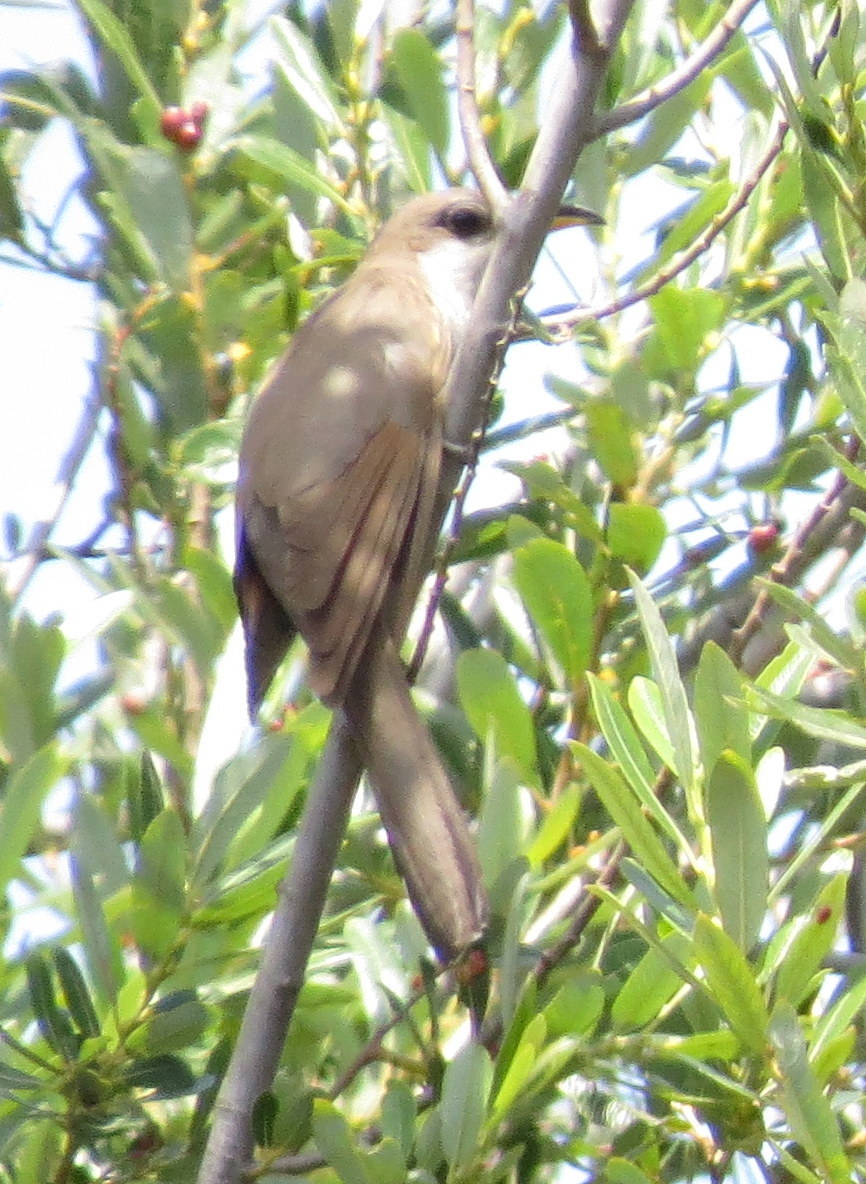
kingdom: Animalia
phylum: Chordata
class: Aves
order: Cuculiformes
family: Cuculidae
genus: Coccyzus
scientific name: Coccyzus americanus
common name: Yellow-billed cuckoo
